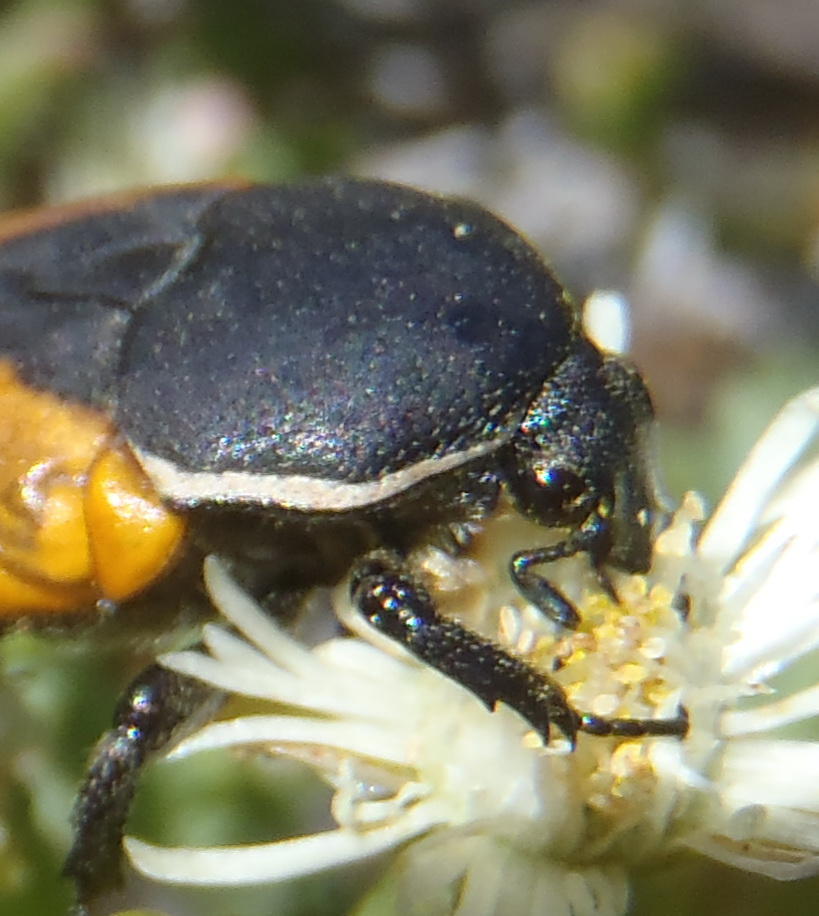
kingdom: Animalia
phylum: Arthropoda
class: Insecta
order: Coleoptera
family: Scarabaeidae
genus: Phonotaenia
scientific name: Phonotaenia balteata
